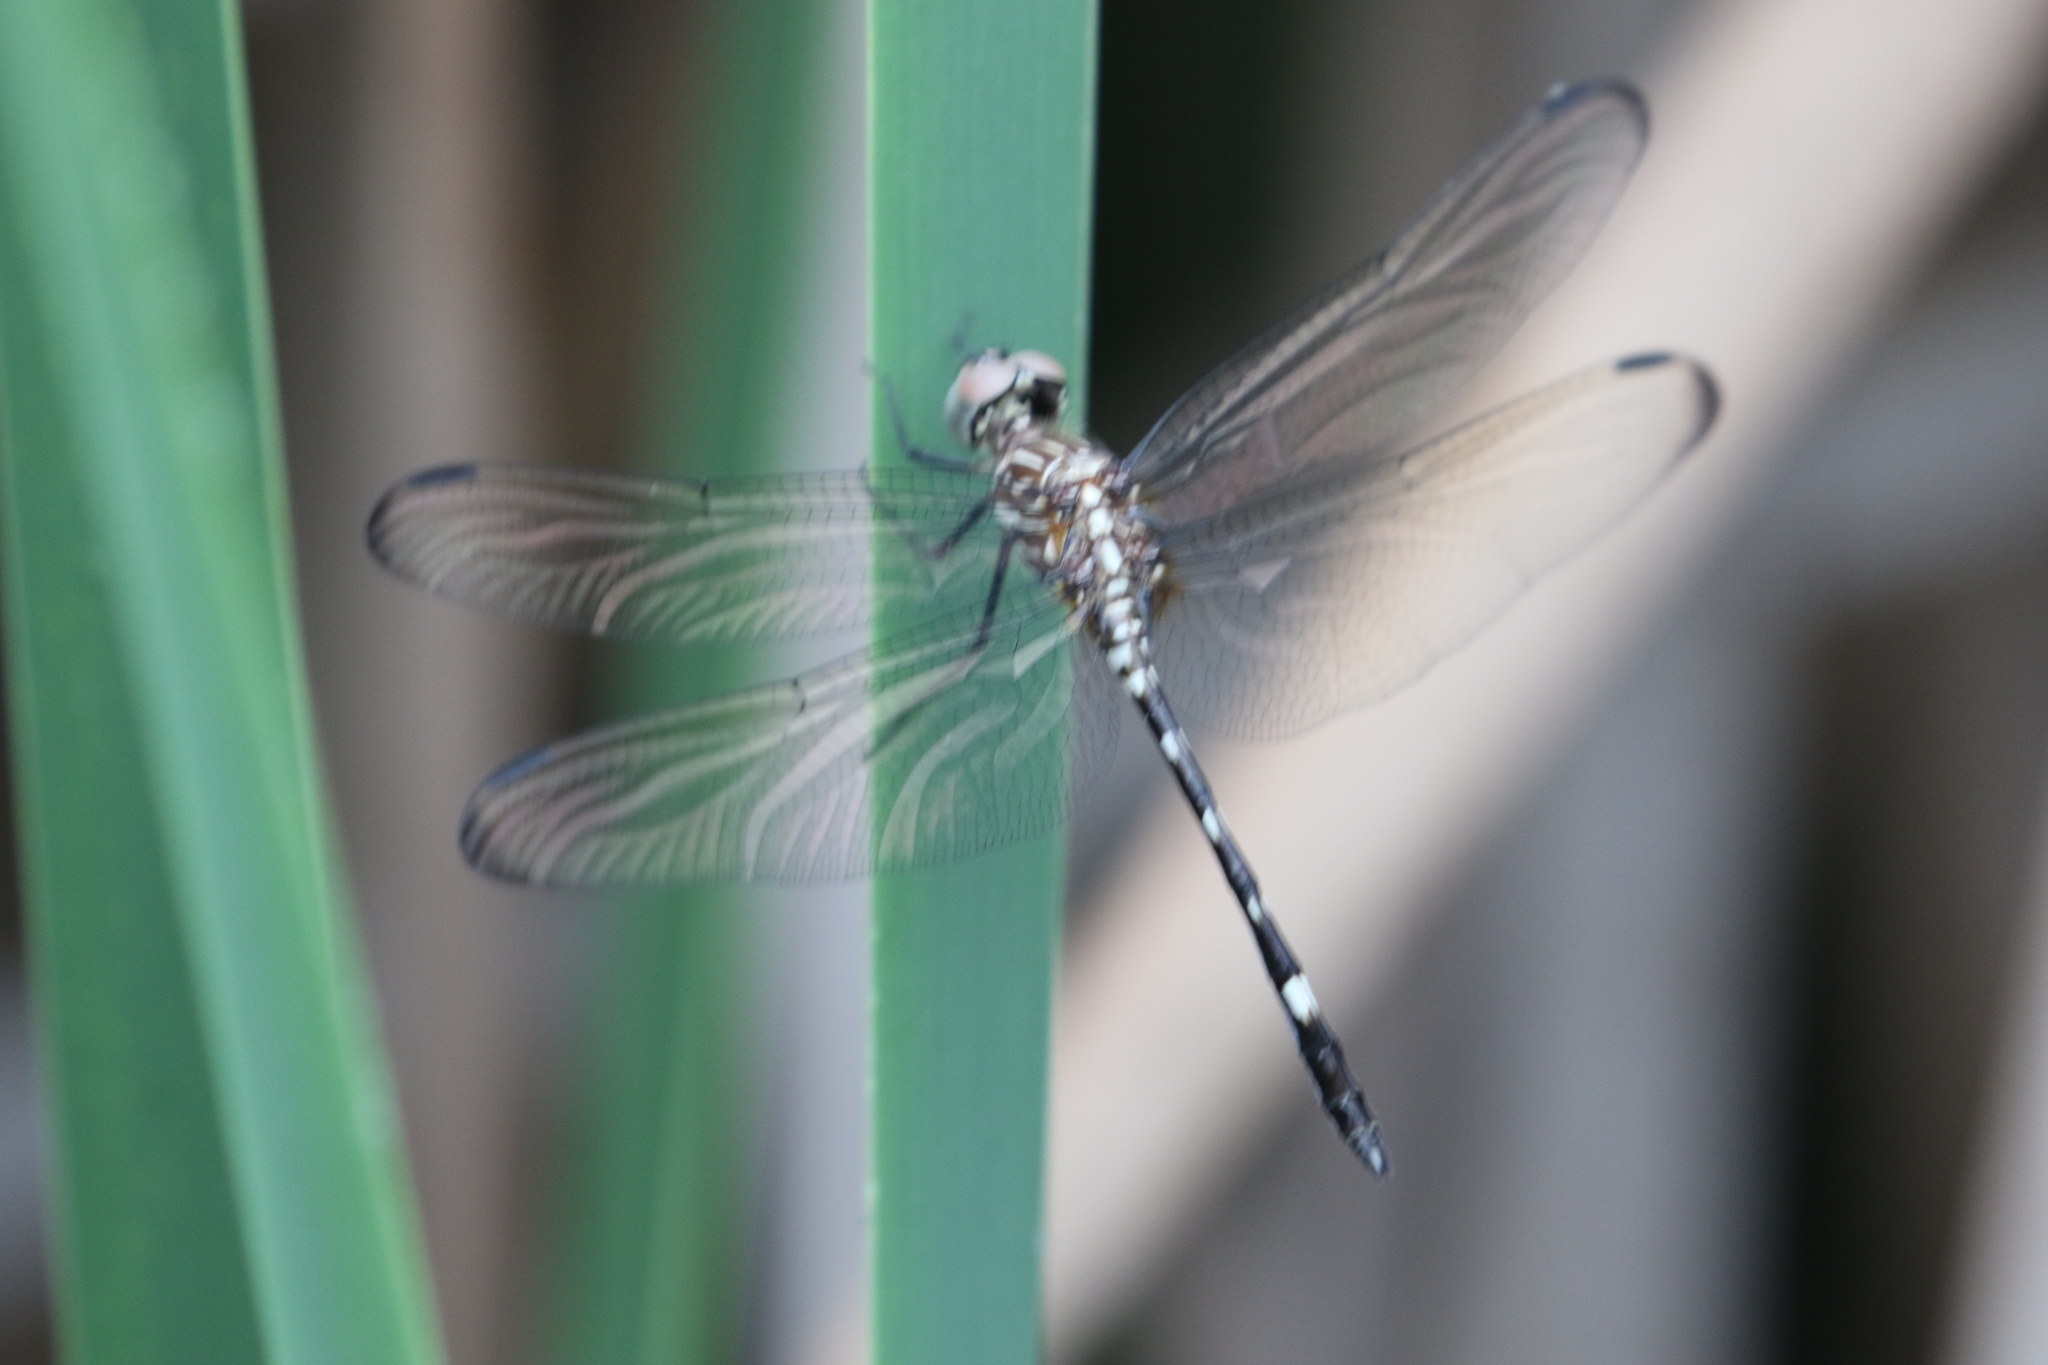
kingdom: Animalia
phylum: Arthropoda
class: Insecta
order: Odonata
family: Libellulidae
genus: Dythemis
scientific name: Dythemis velox
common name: Swift setwing
